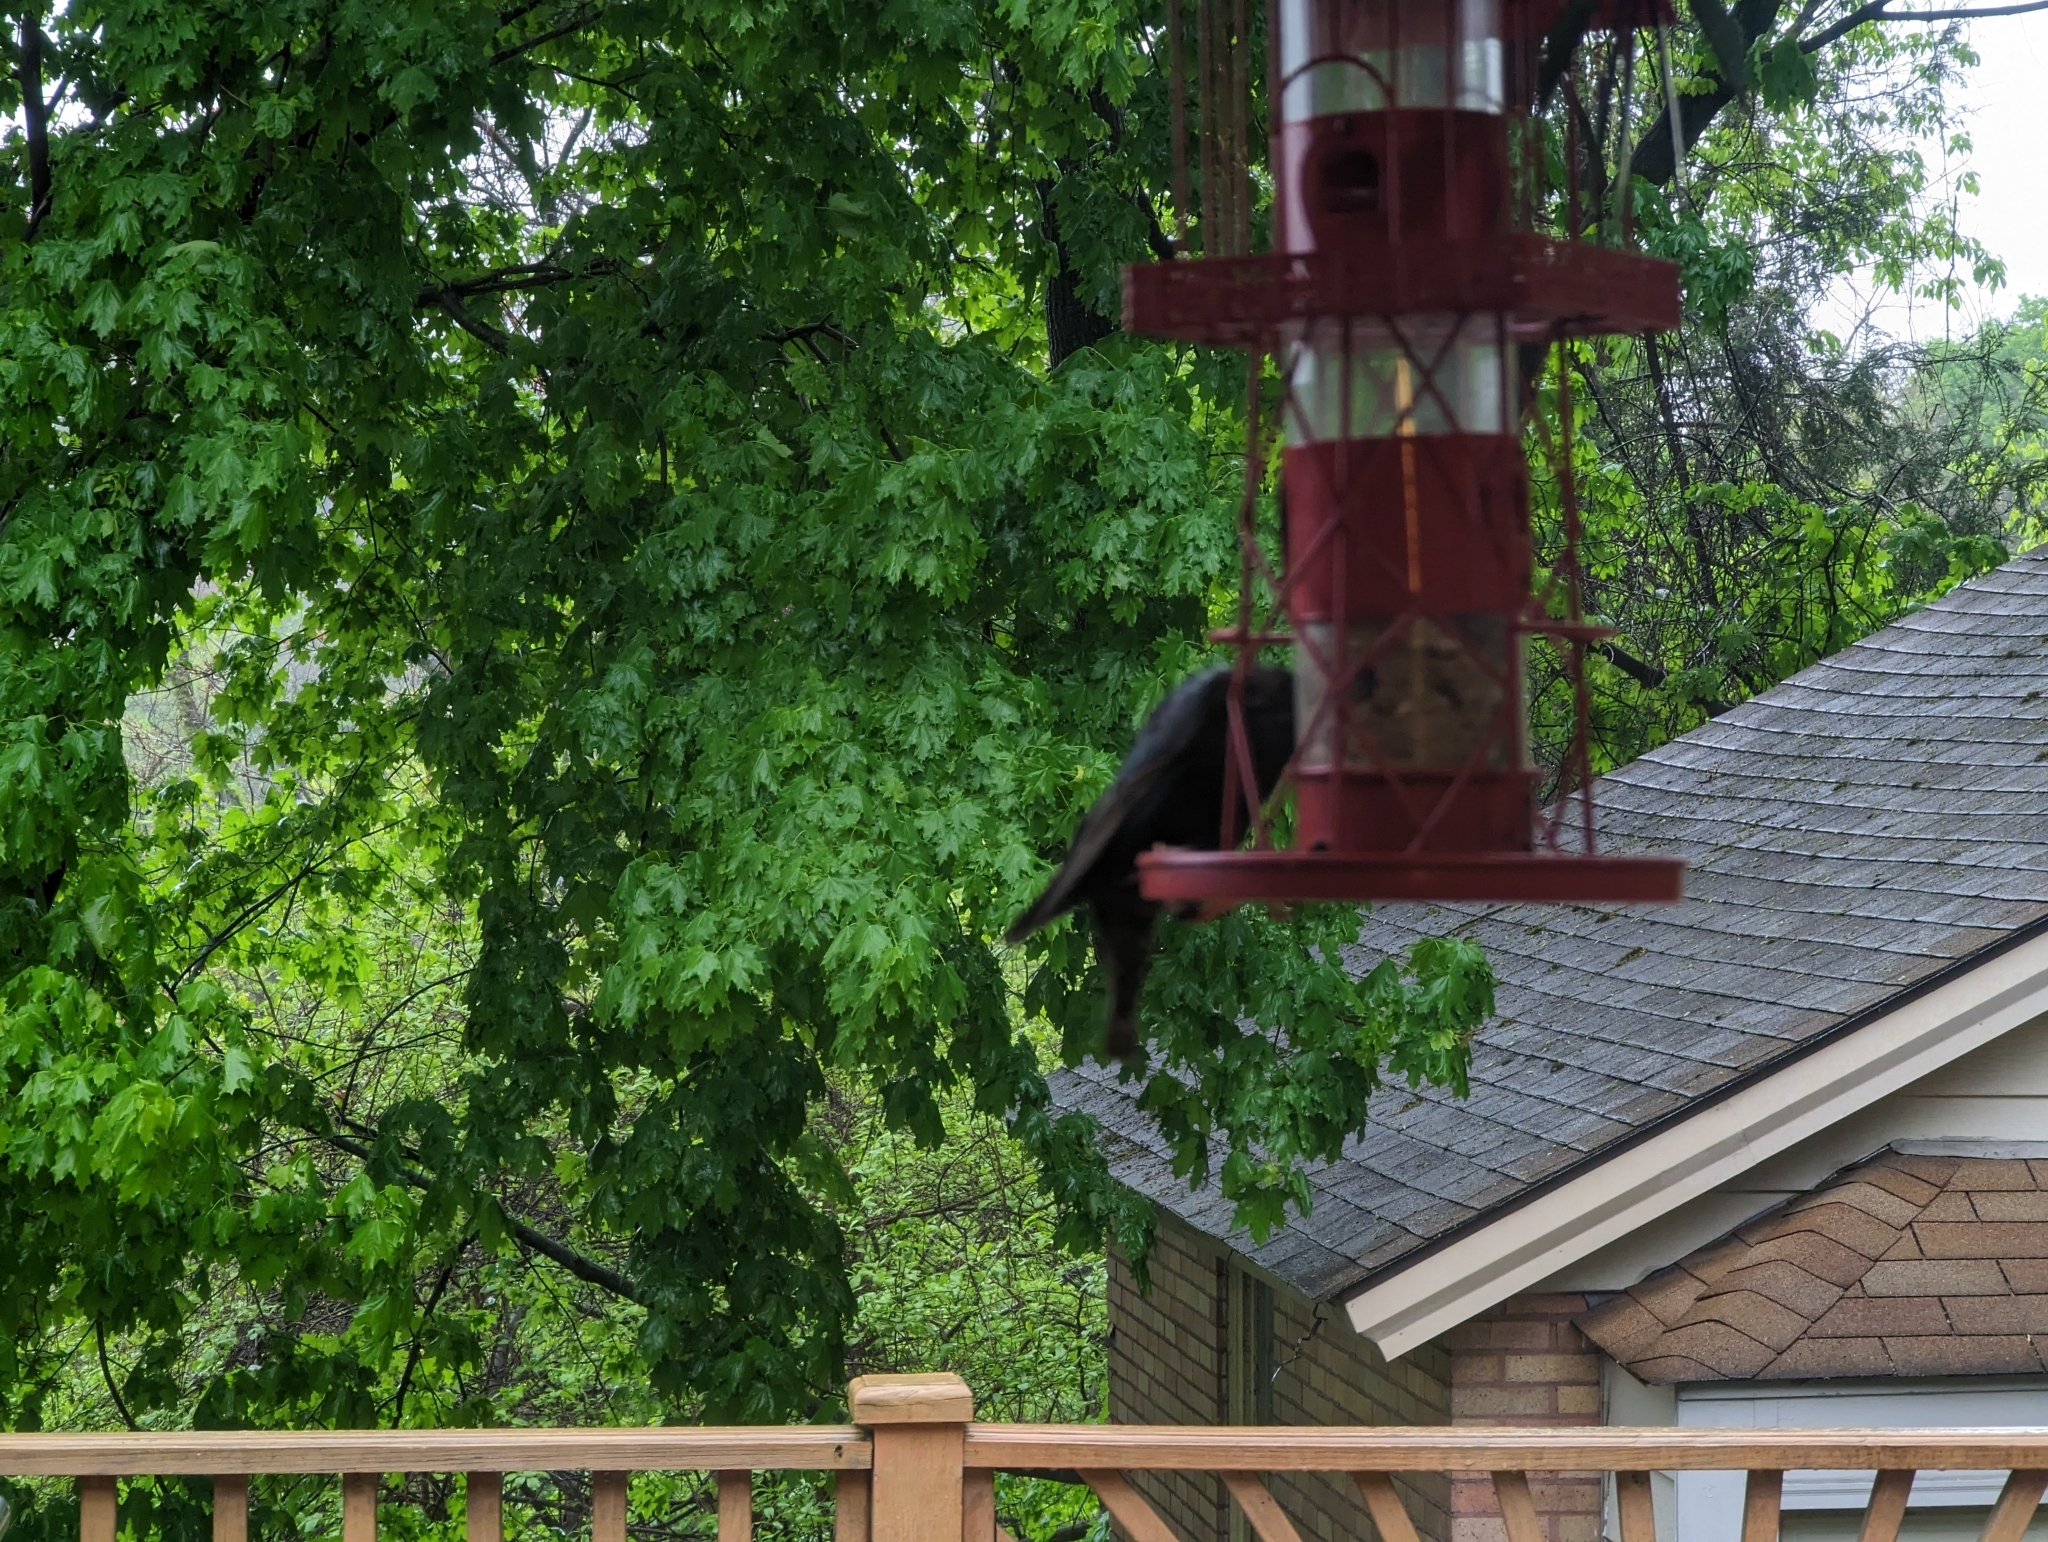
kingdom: Animalia
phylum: Chordata
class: Aves
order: Passeriformes
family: Sturnidae
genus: Sturnus
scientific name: Sturnus vulgaris
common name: Common starling
